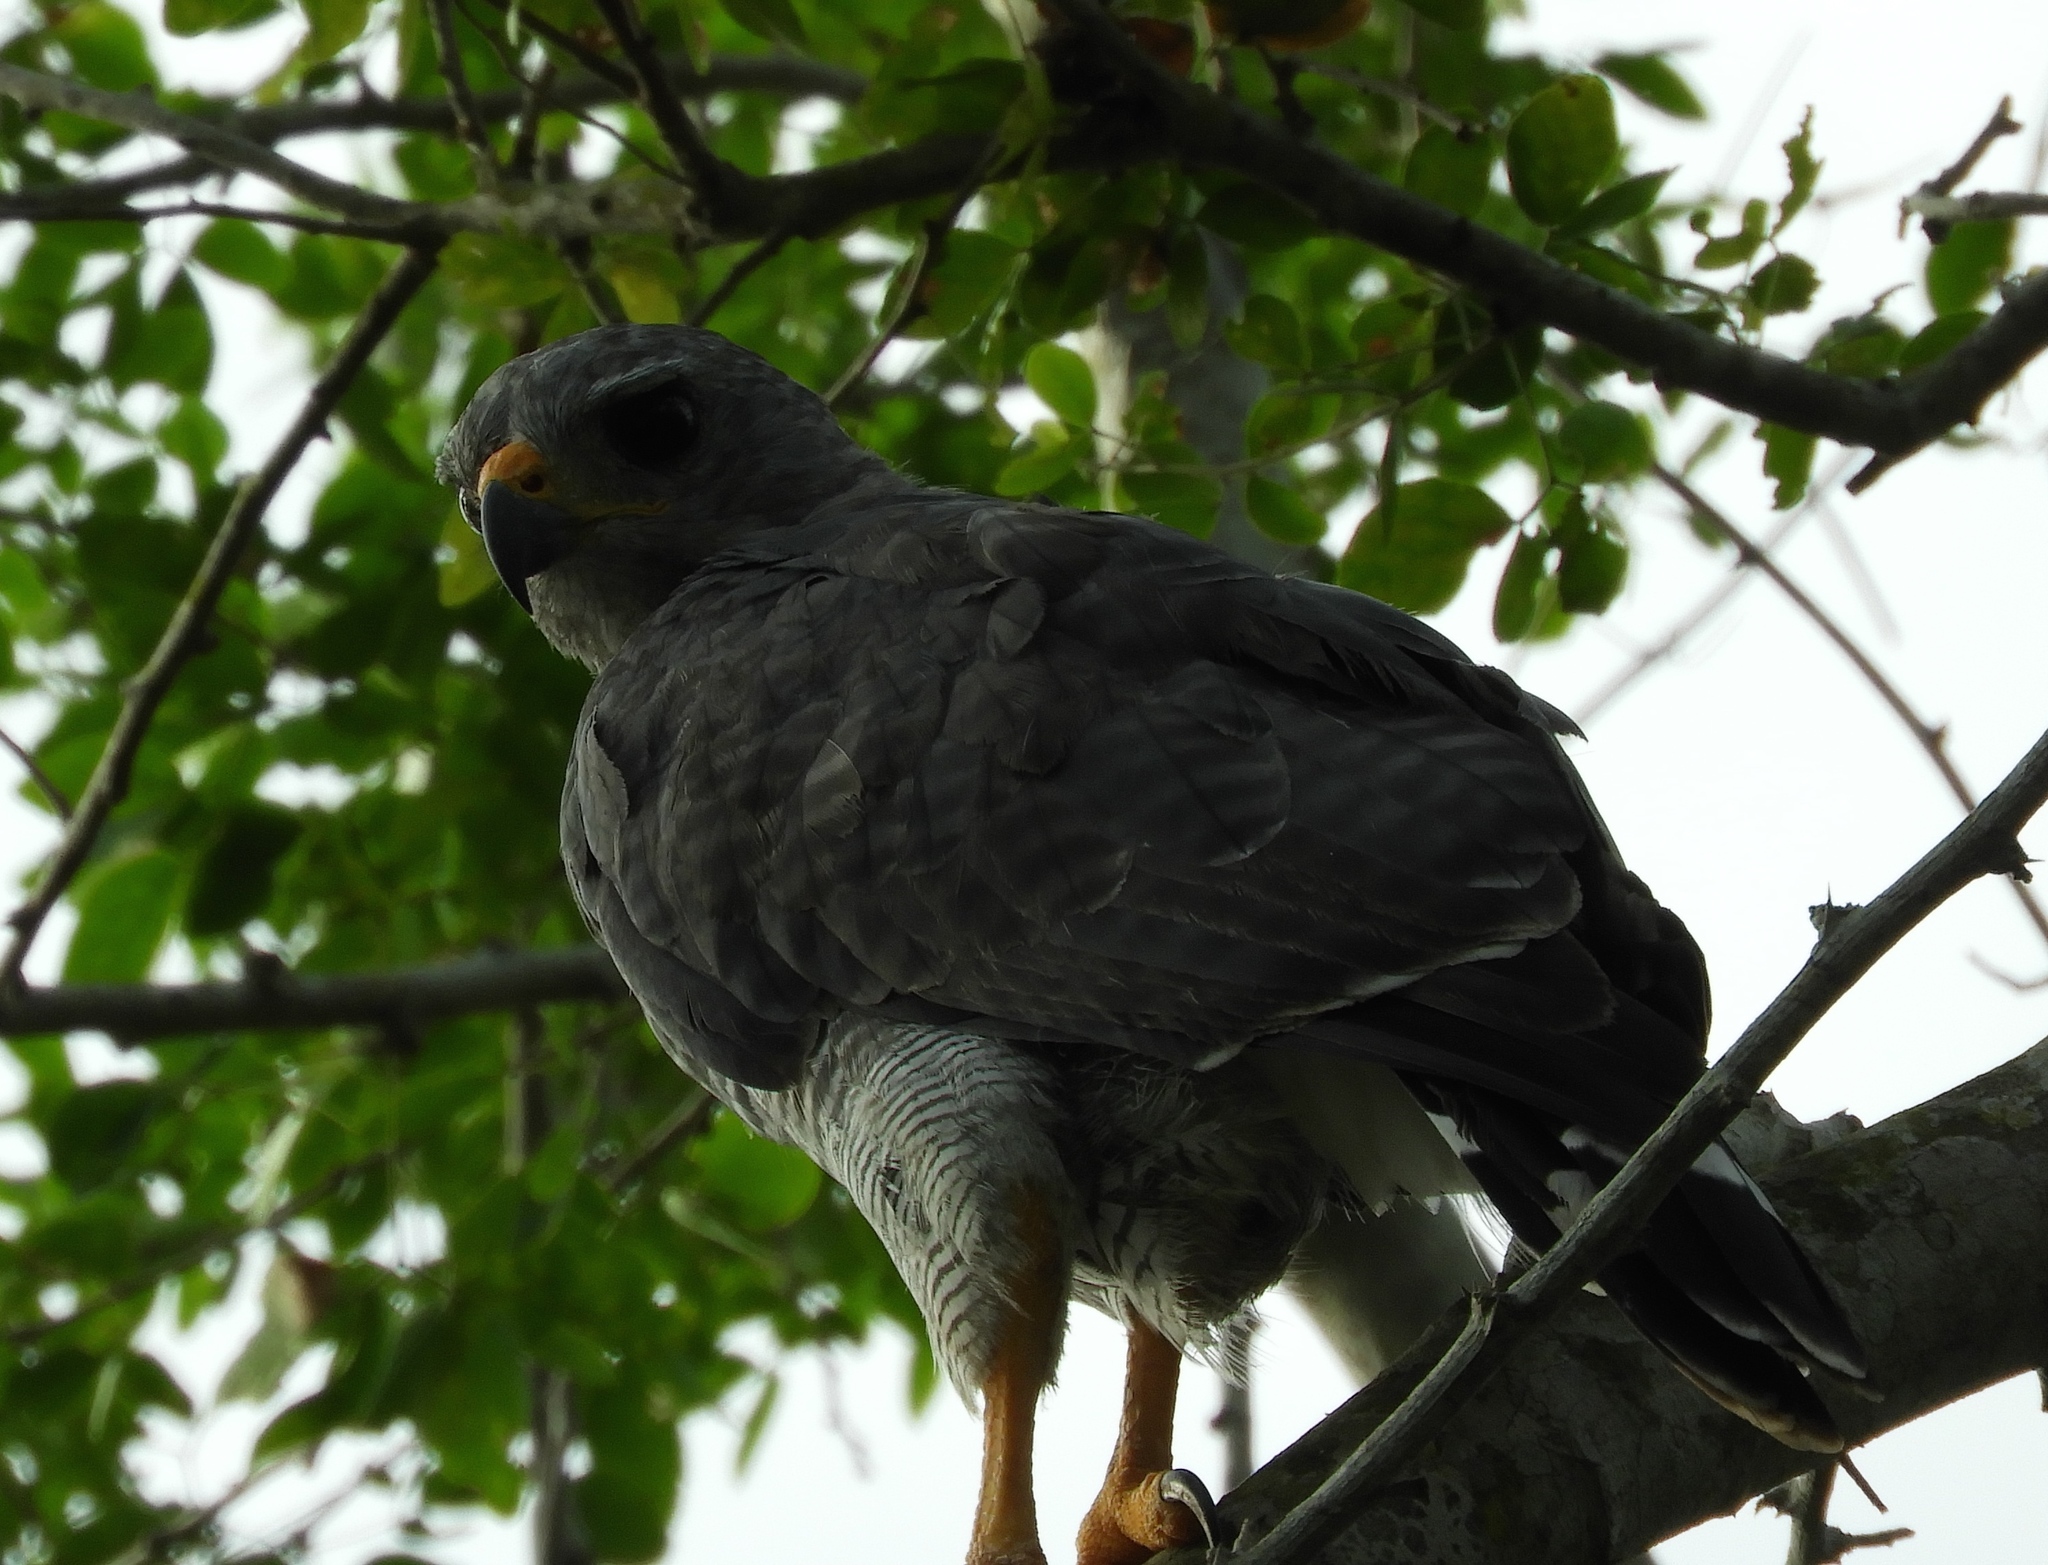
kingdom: Animalia
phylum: Chordata
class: Aves
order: Accipitriformes
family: Accipitridae
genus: Buteo
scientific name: Buteo nitidus
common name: Grey-lined hawk
